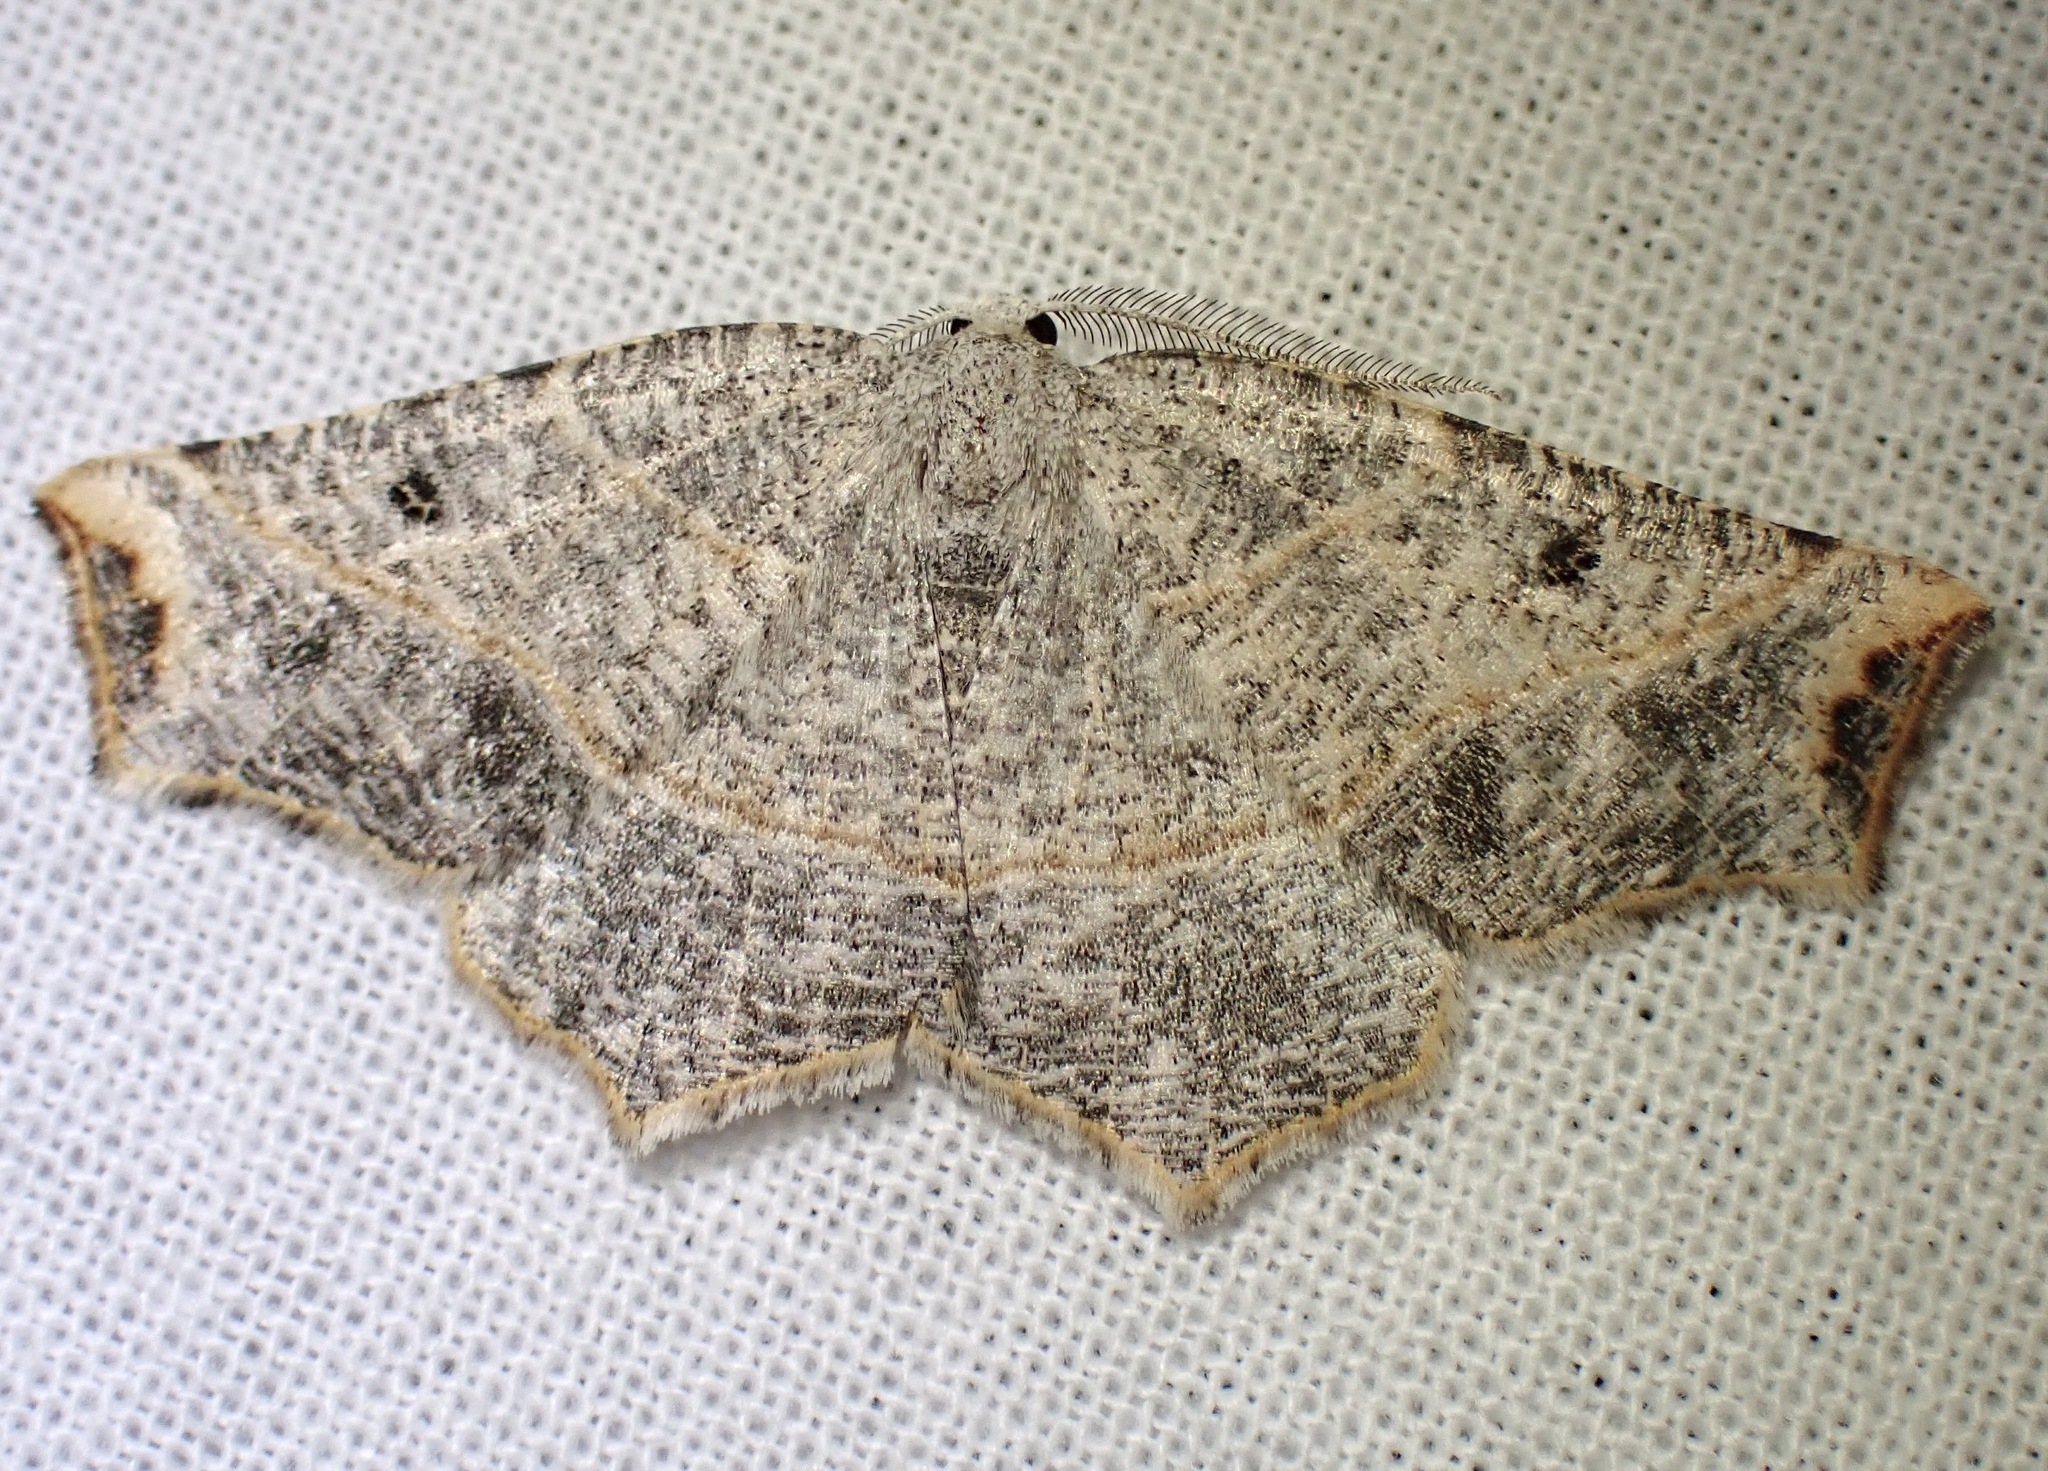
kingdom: Animalia
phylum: Arthropoda
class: Insecta
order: Lepidoptera
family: Geometridae
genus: Synaxis
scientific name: Synaxis brunneilinearia
